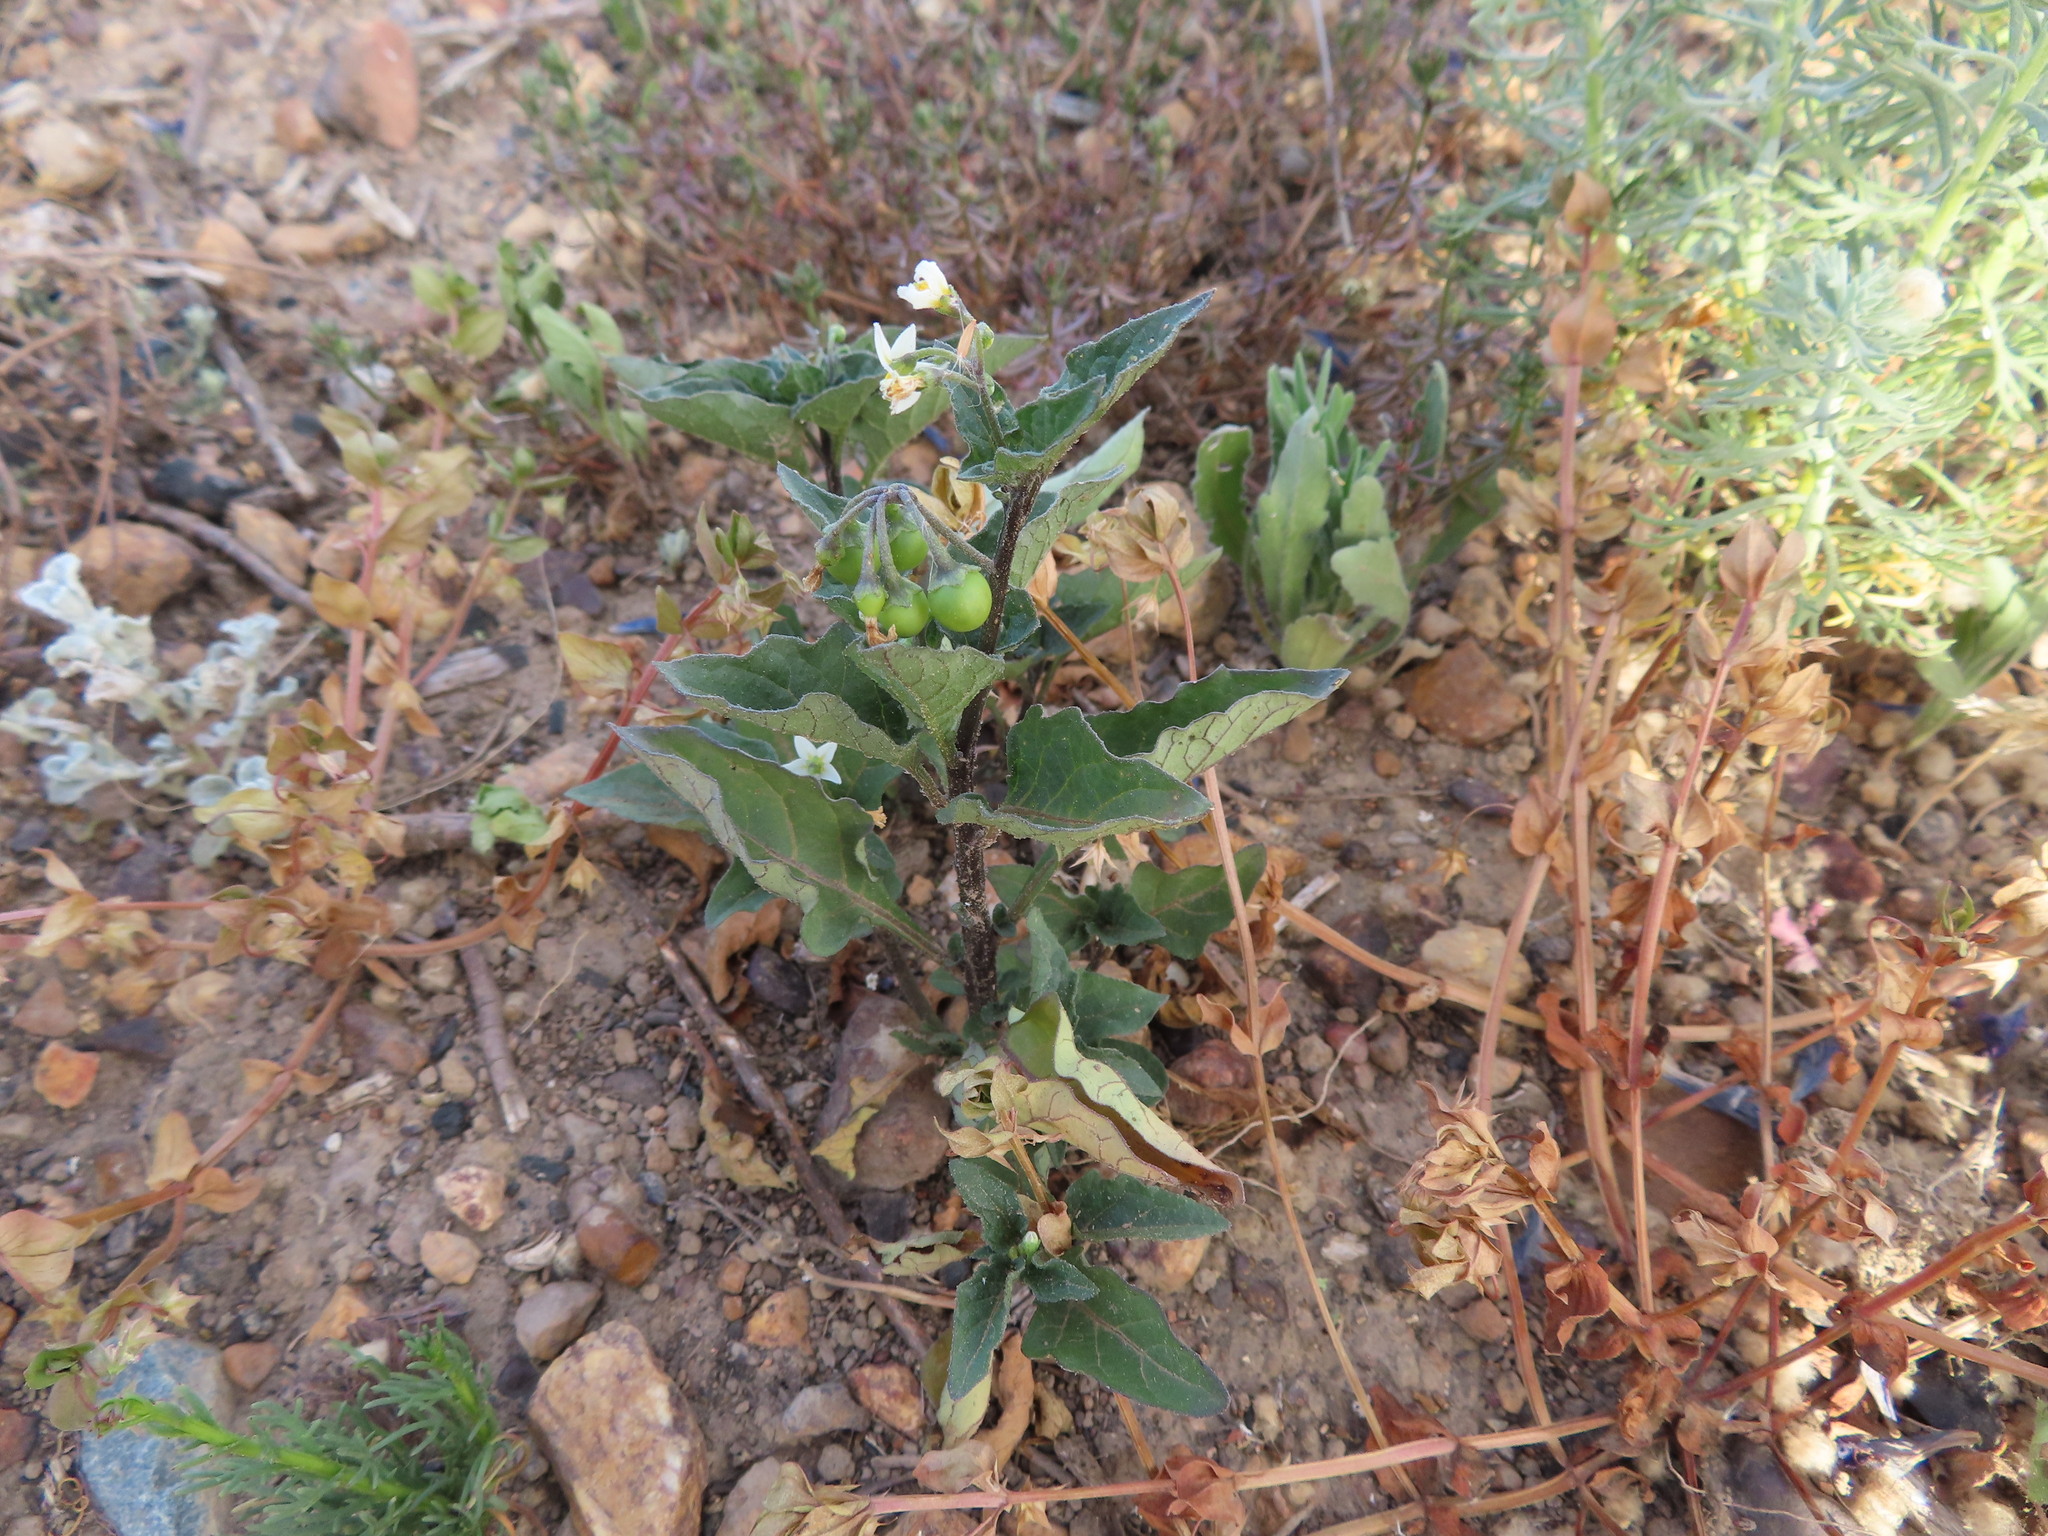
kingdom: Plantae
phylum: Tracheophyta
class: Magnoliopsida
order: Solanales
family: Solanaceae
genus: Solanum
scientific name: Solanum nigrum
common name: Black nightshade
